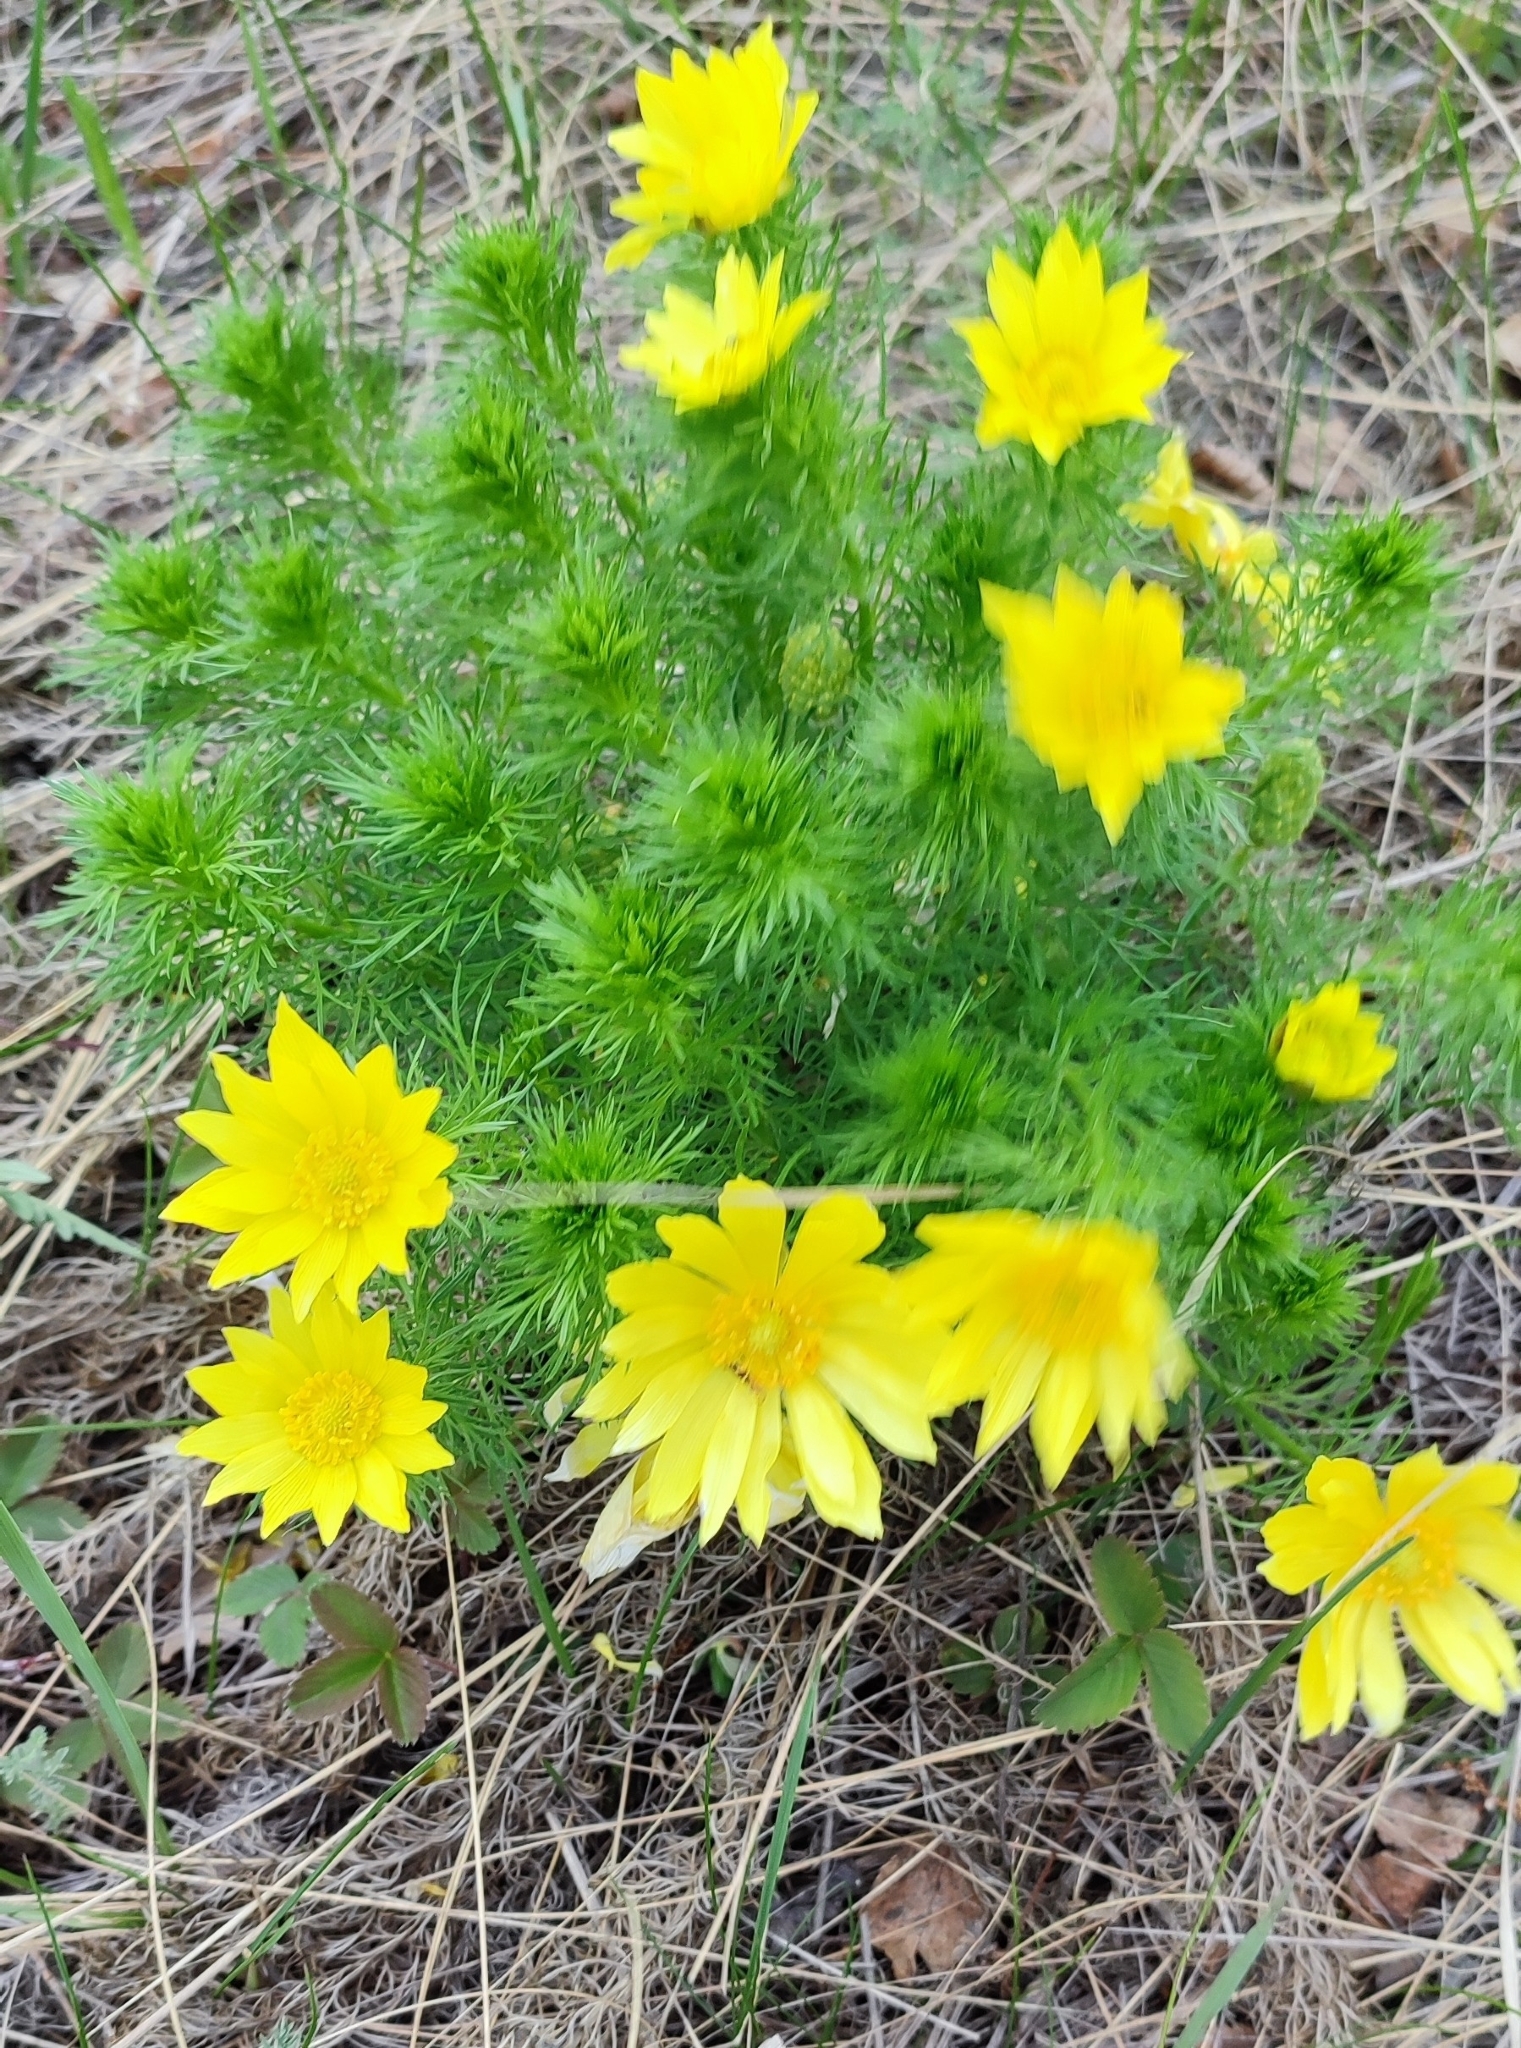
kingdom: Plantae
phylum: Tracheophyta
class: Magnoliopsida
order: Ranunculales
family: Ranunculaceae
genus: Adonis
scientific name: Adonis vernalis
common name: Yellow pheasants-eye
